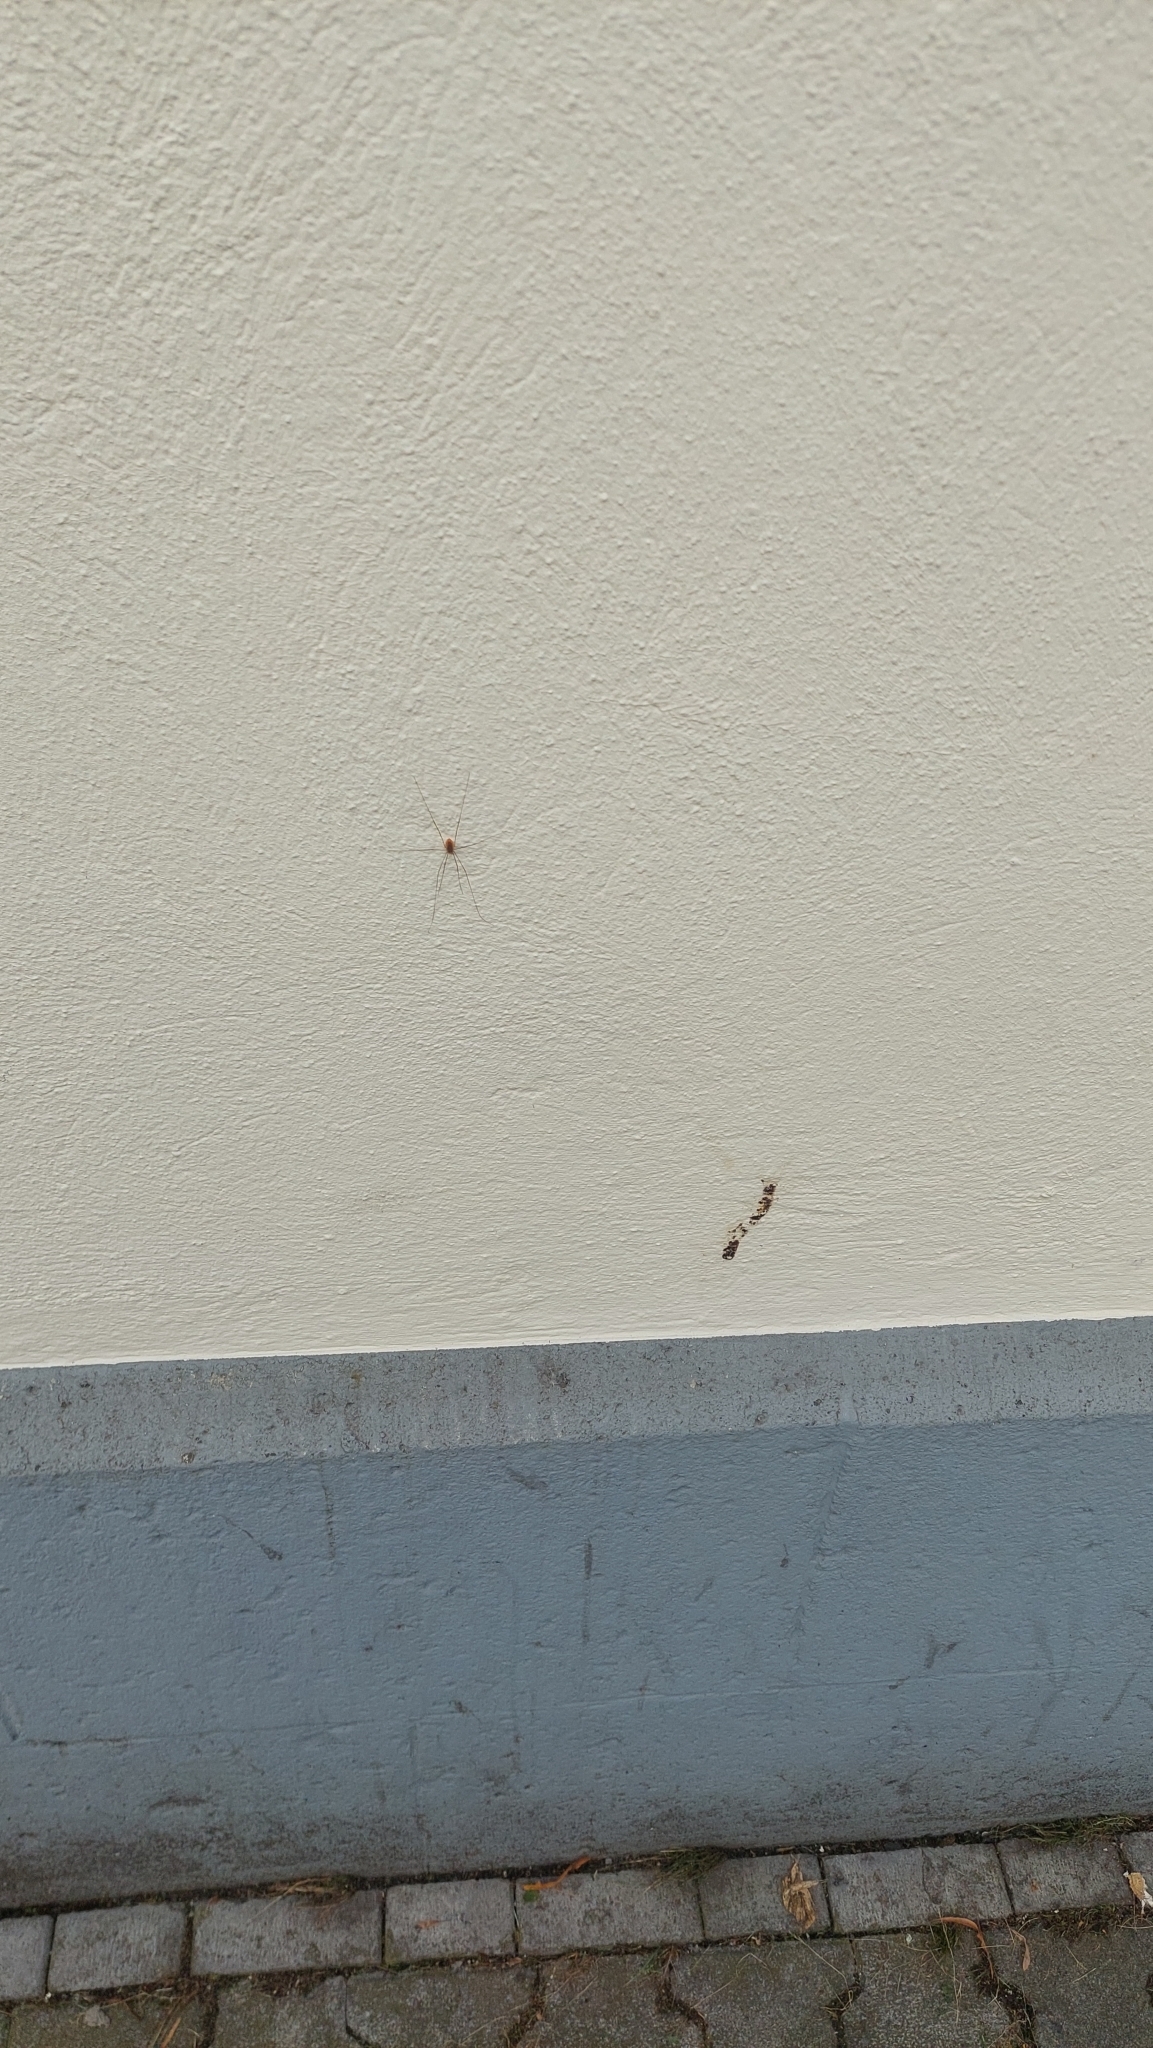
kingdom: Animalia
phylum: Arthropoda
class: Arachnida
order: Opiliones
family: Phalangiidae
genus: Opilio
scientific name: Opilio canestrinii
